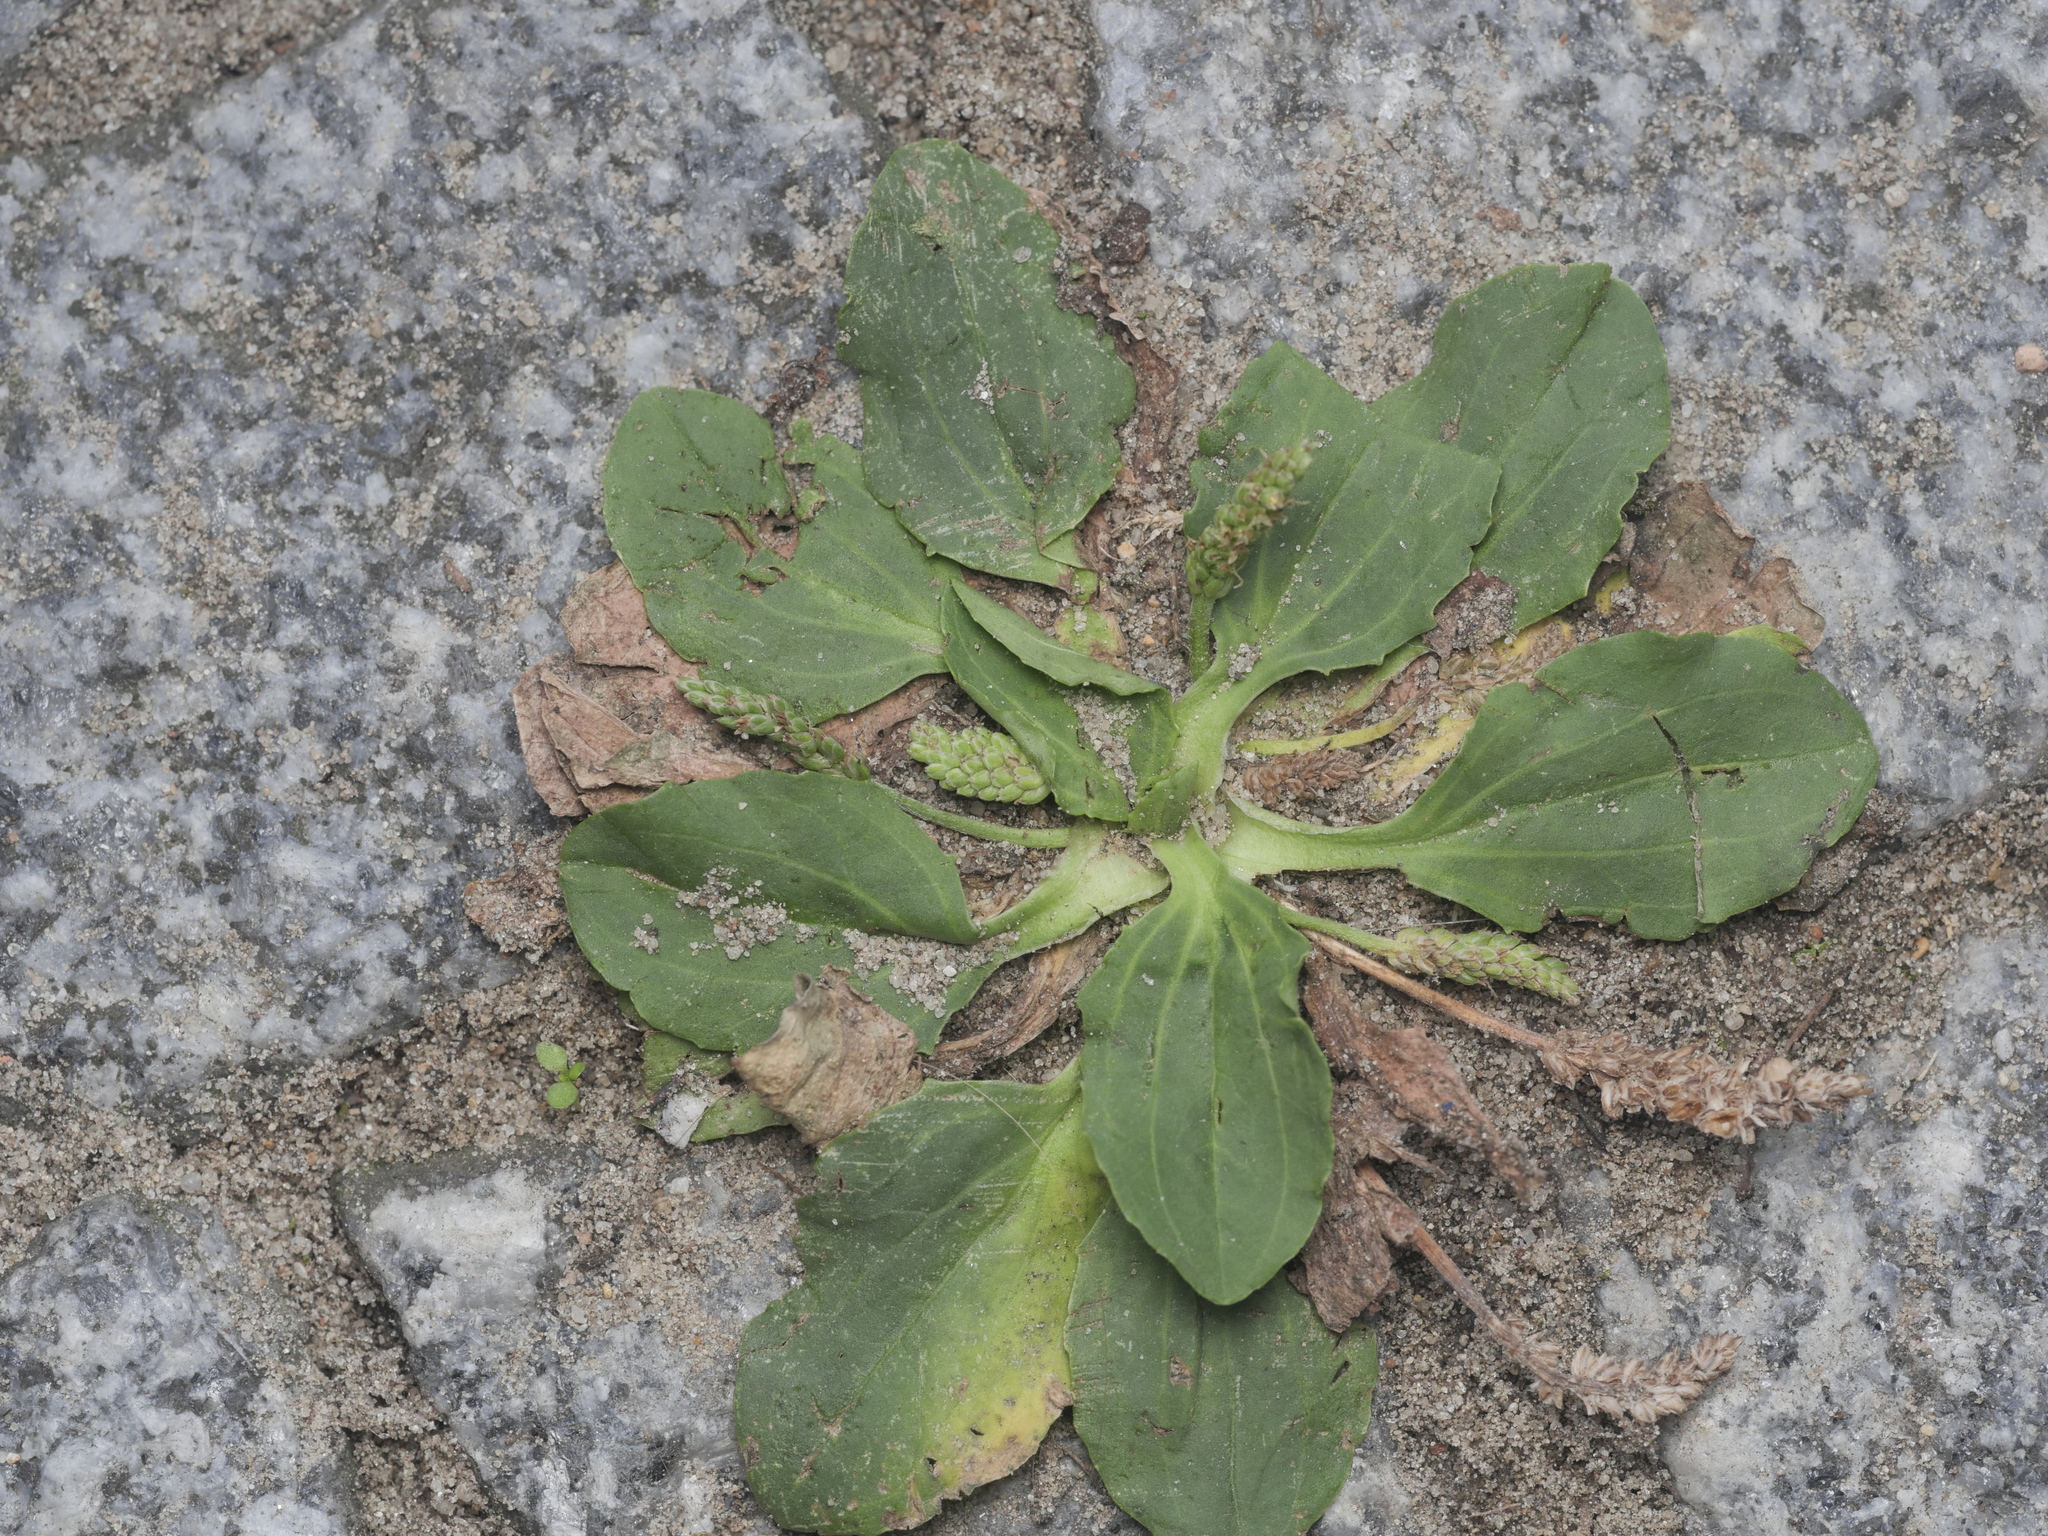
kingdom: Plantae
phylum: Tracheophyta
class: Magnoliopsida
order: Lamiales
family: Plantaginaceae
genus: Plantago
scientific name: Plantago major
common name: Common plantain
